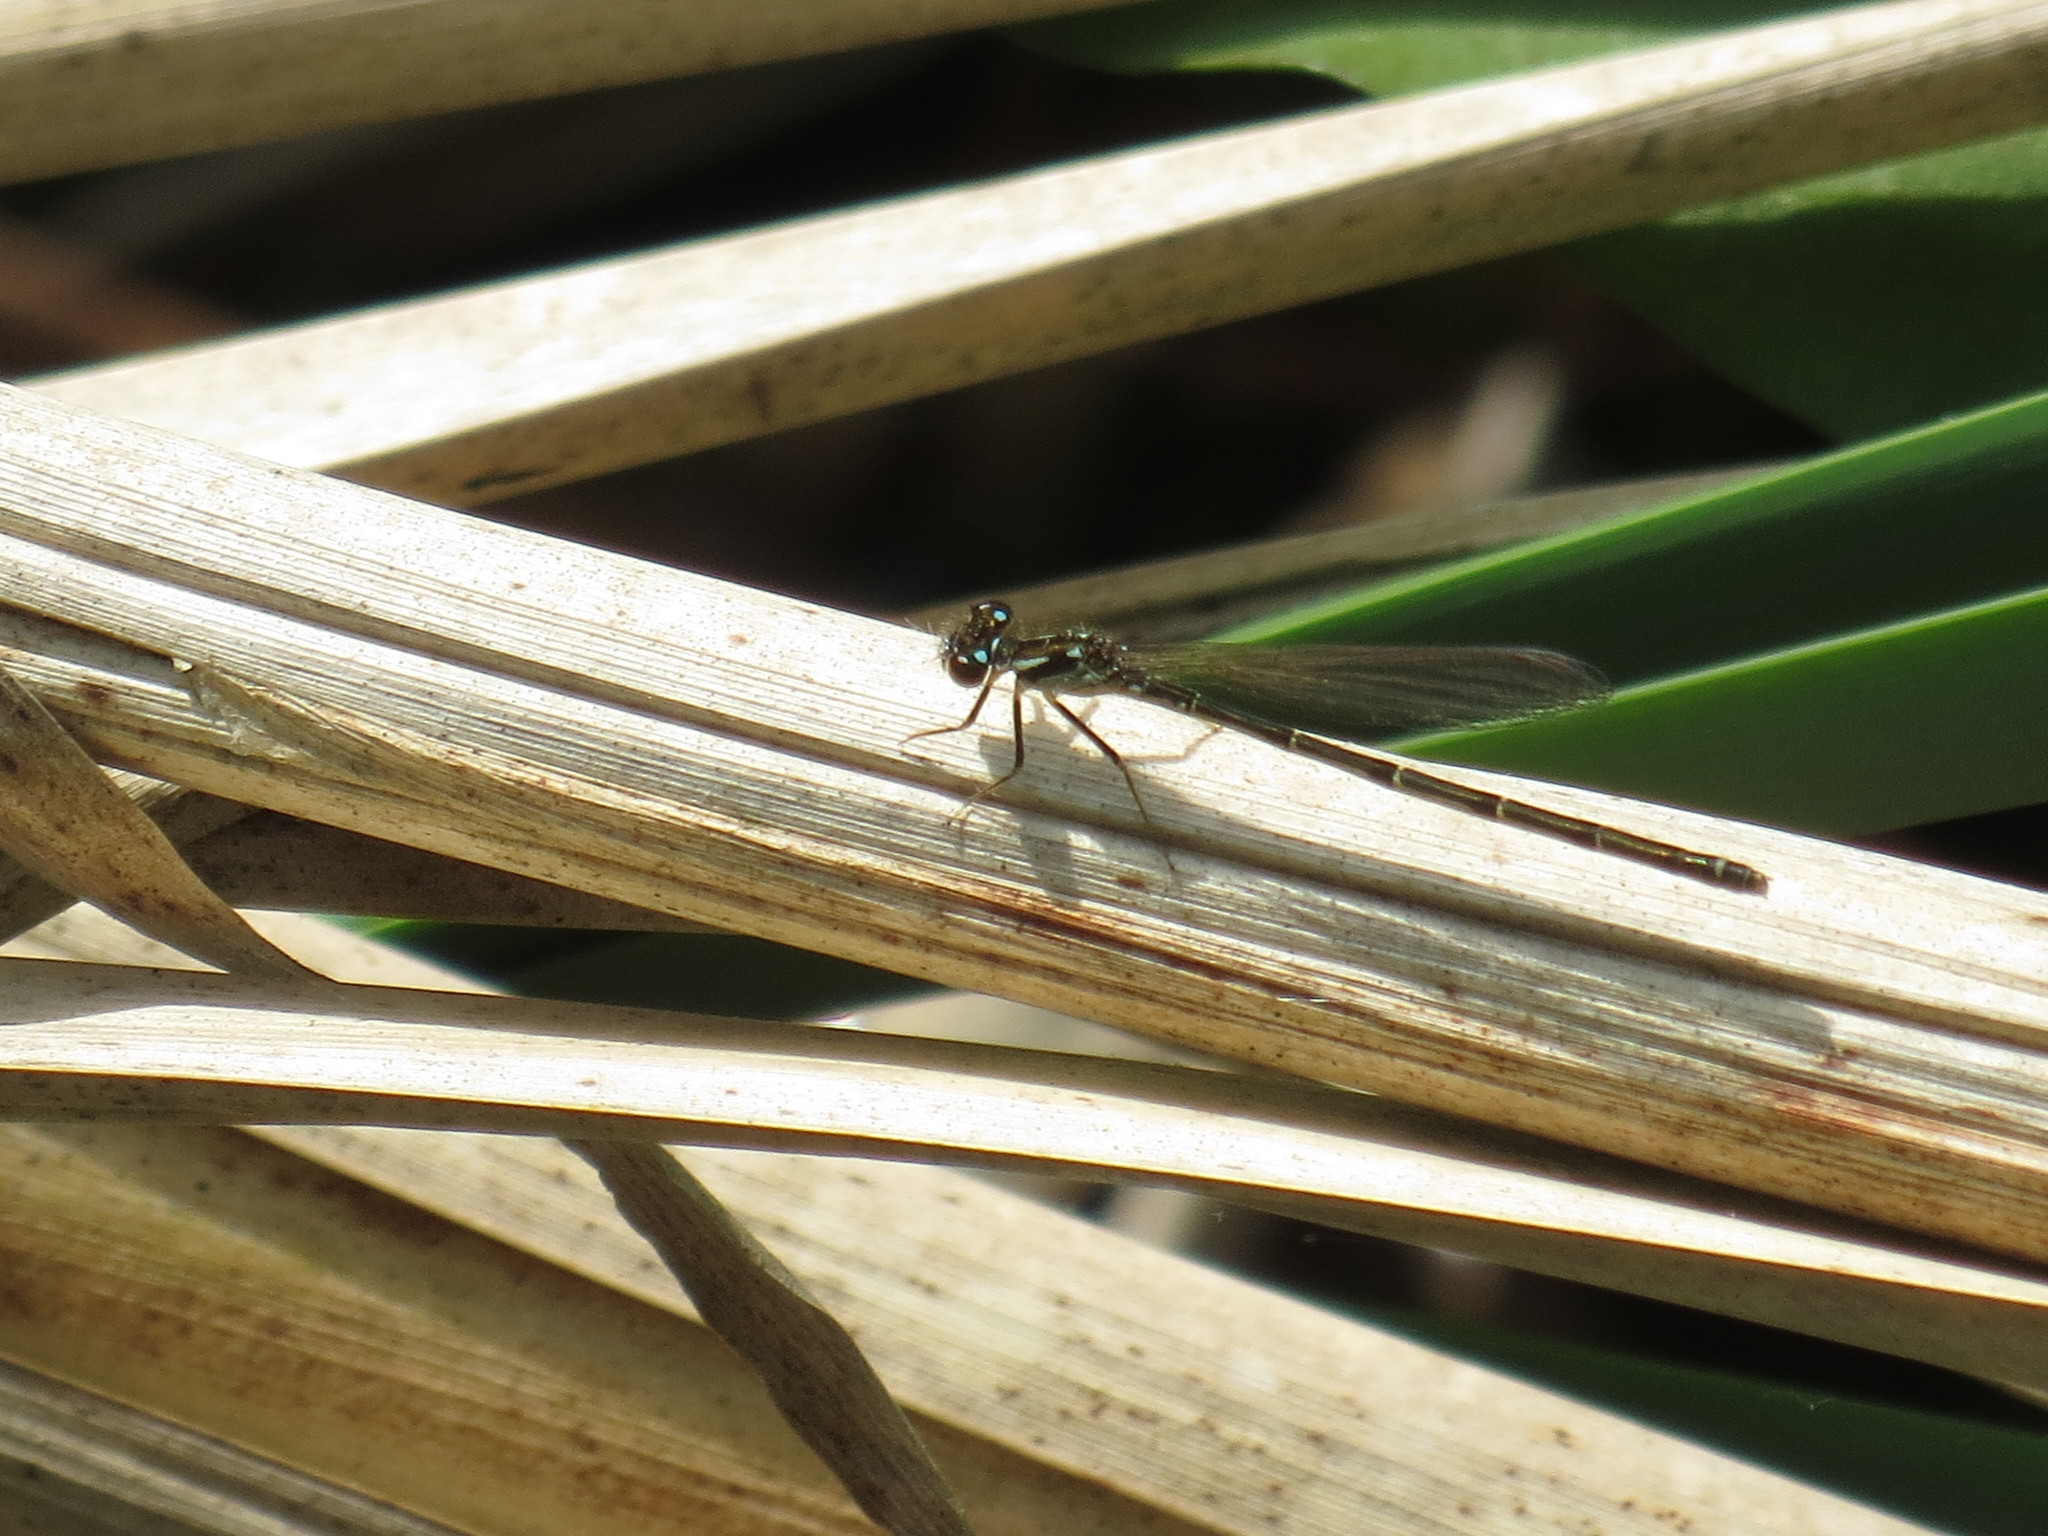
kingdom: Animalia
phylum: Arthropoda
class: Insecta
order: Odonata
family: Coenagrionidae
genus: Ischnura
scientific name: Ischnura posita
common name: Fragile forktail
